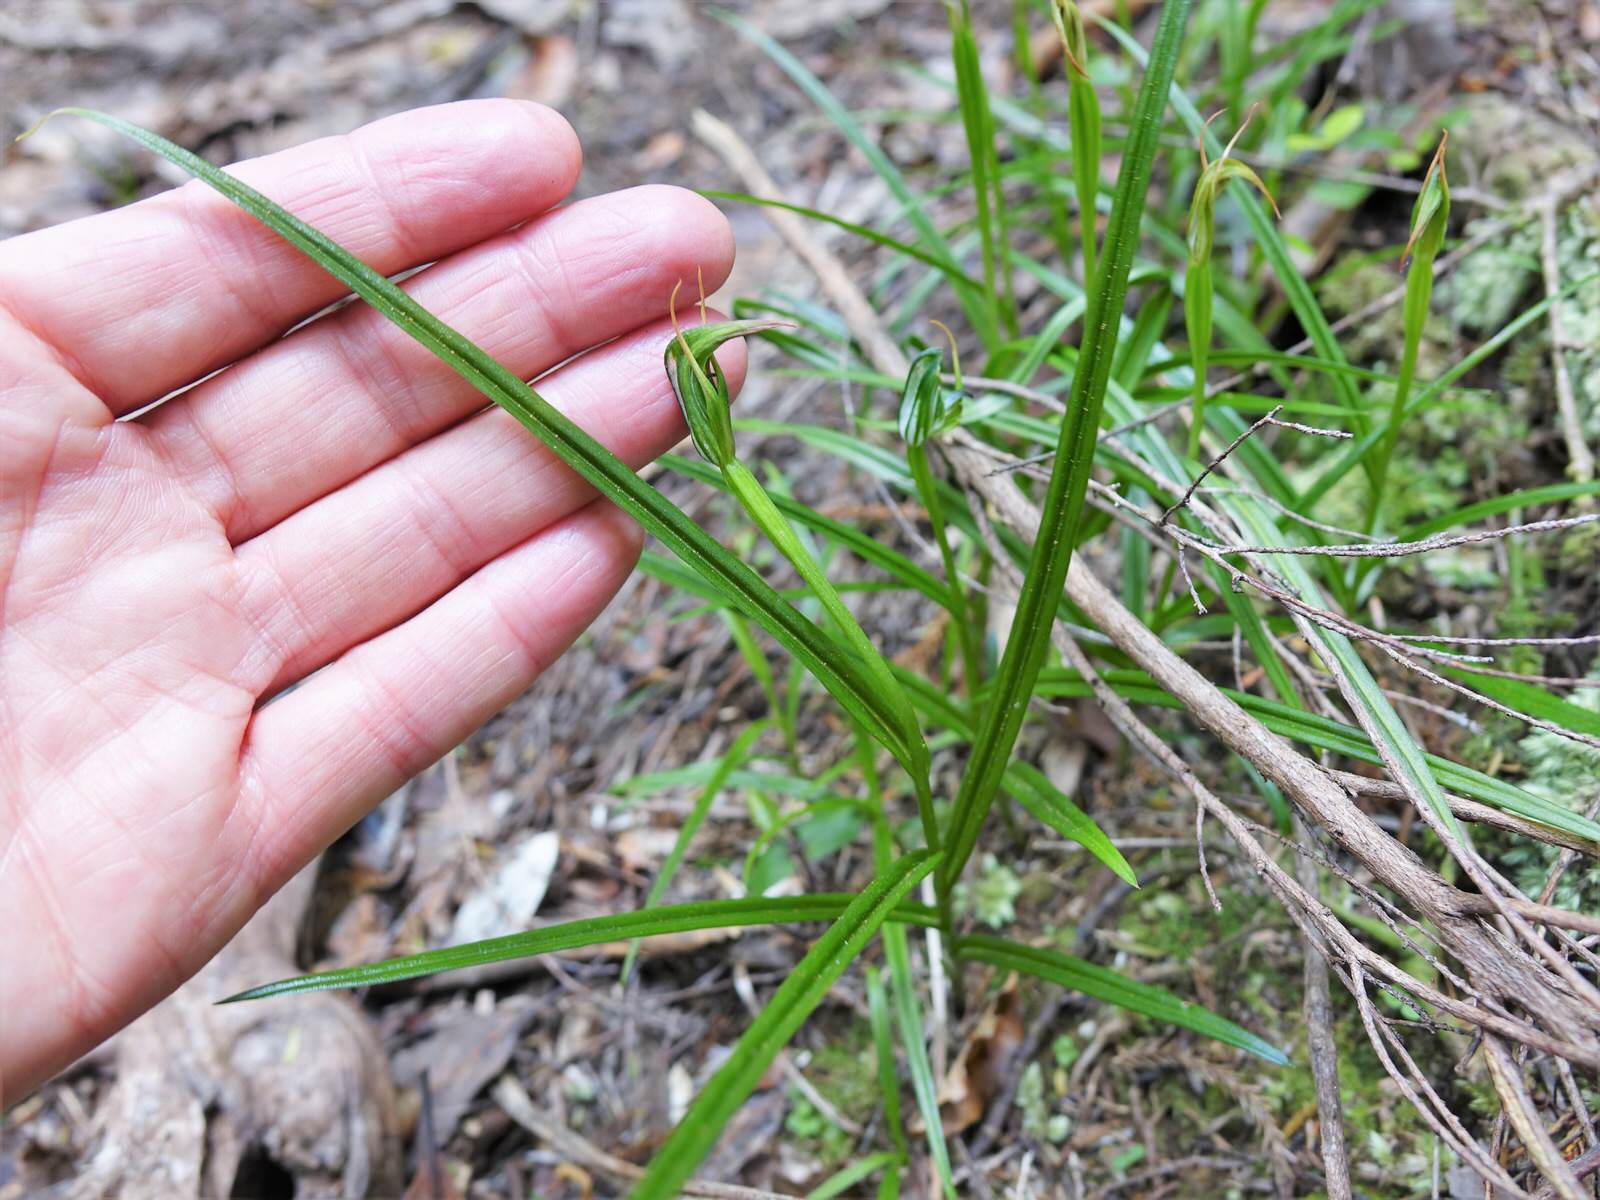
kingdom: Plantae
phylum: Tracheophyta
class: Liliopsida
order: Asparagales
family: Orchidaceae
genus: Pterostylis
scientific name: Pterostylis graminea
